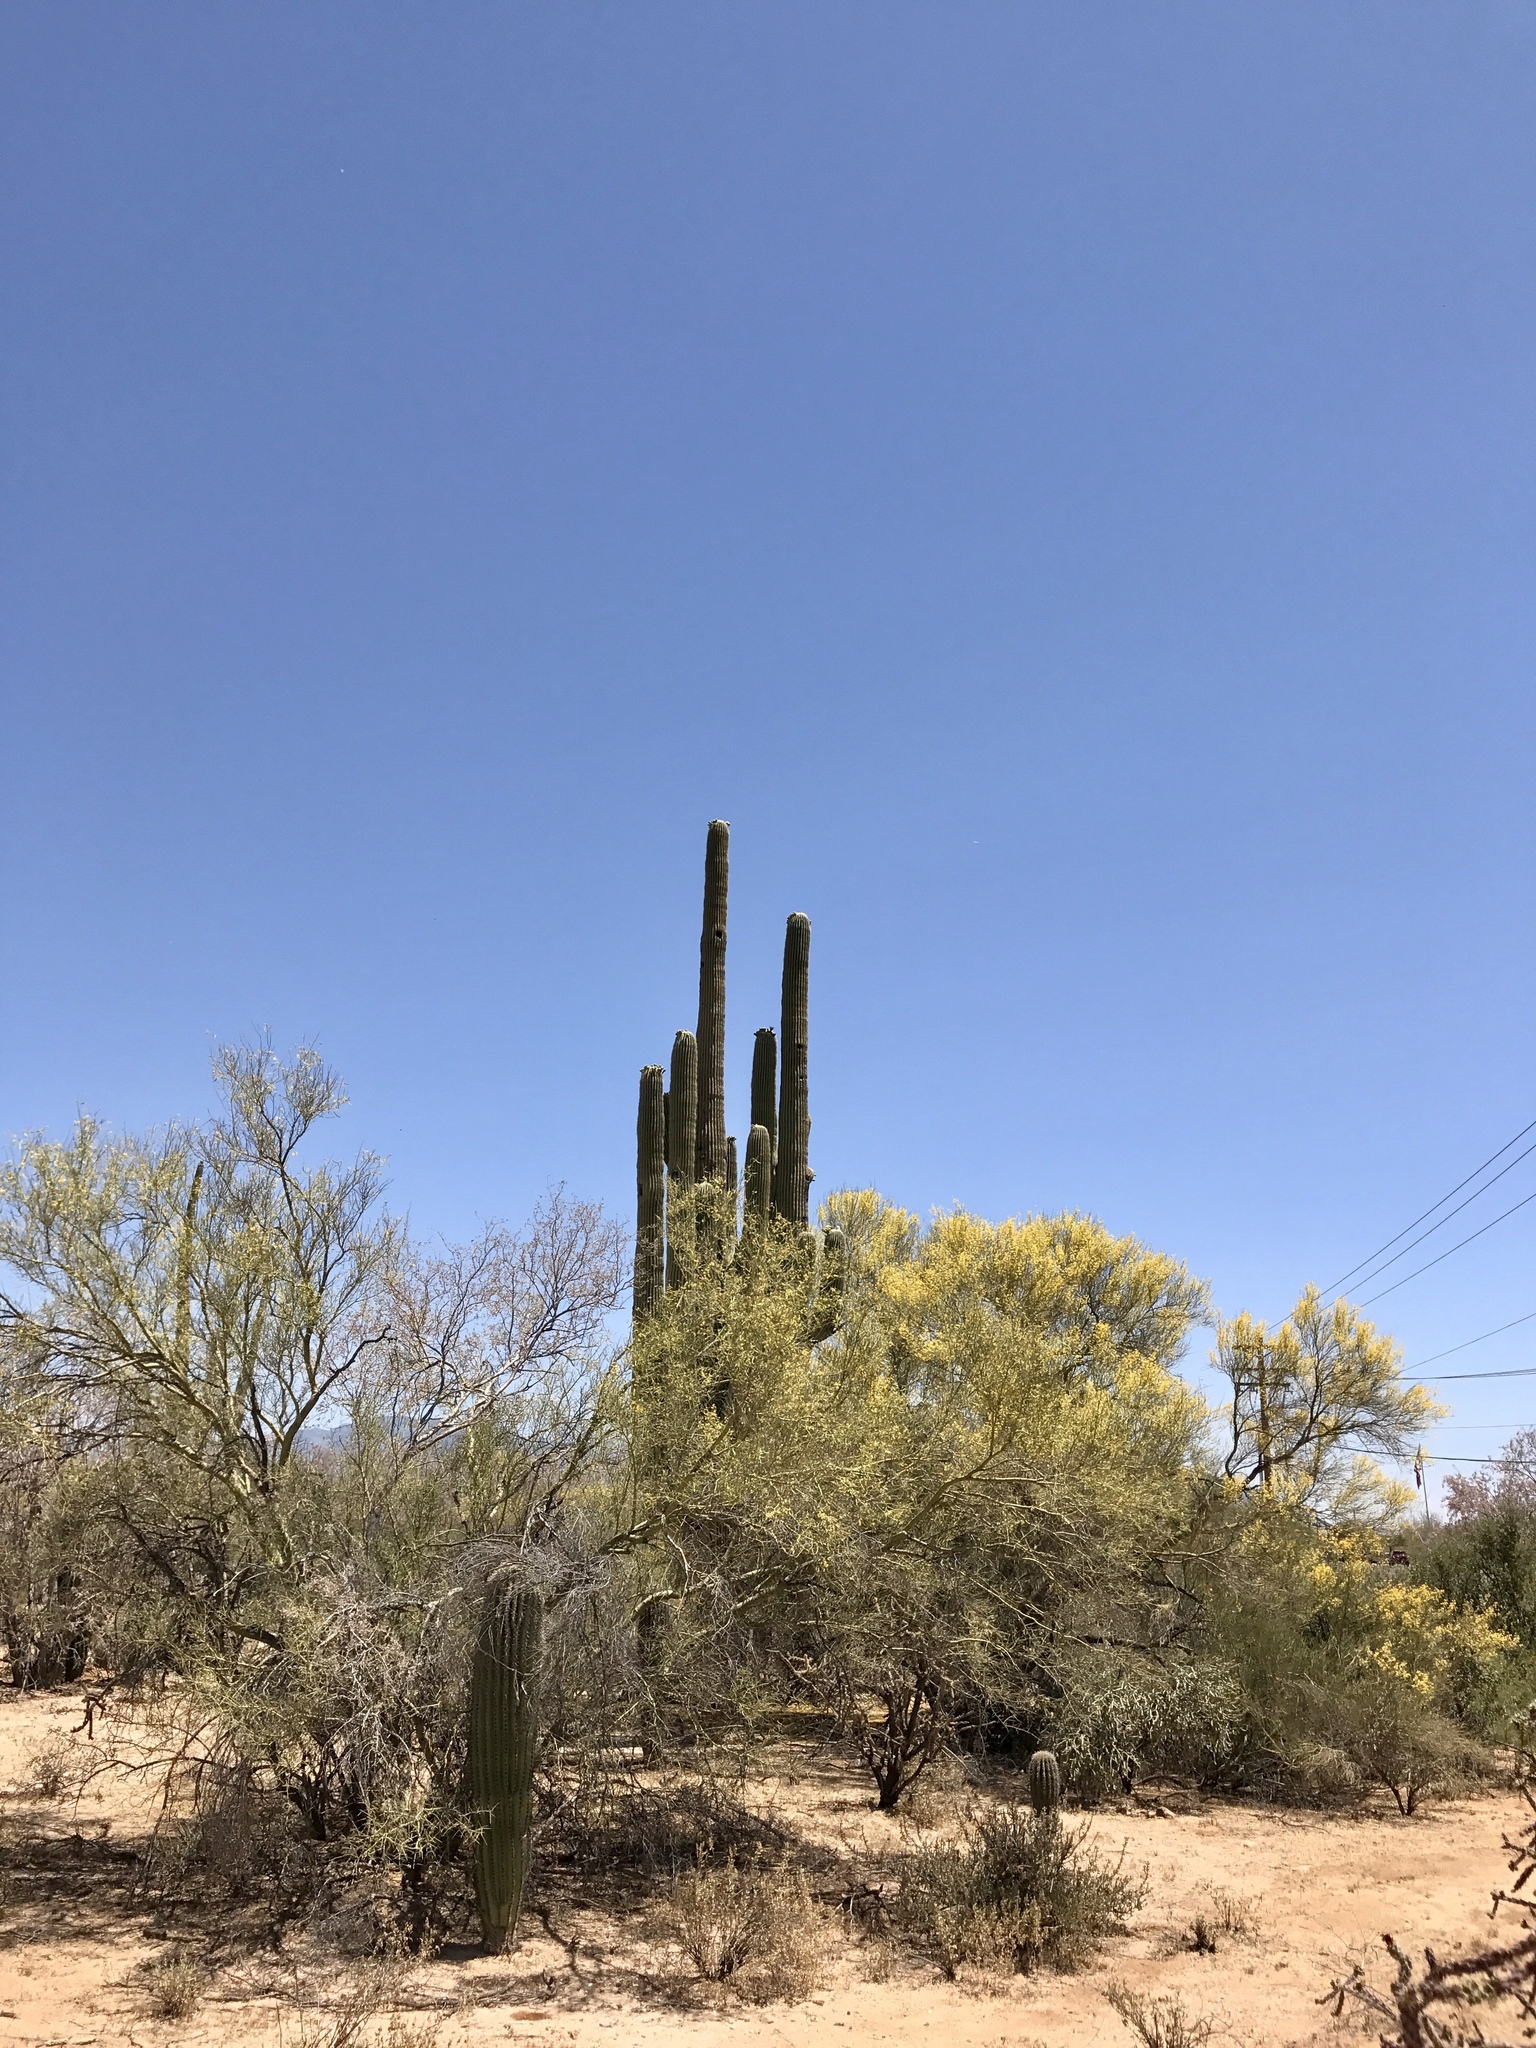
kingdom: Plantae
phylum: Tracheophyta
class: Magnoliopsida
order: Fabales
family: Fabaceae
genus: Parkinsonia
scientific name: Parkinsonia microphylla
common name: Yellow paloverde
